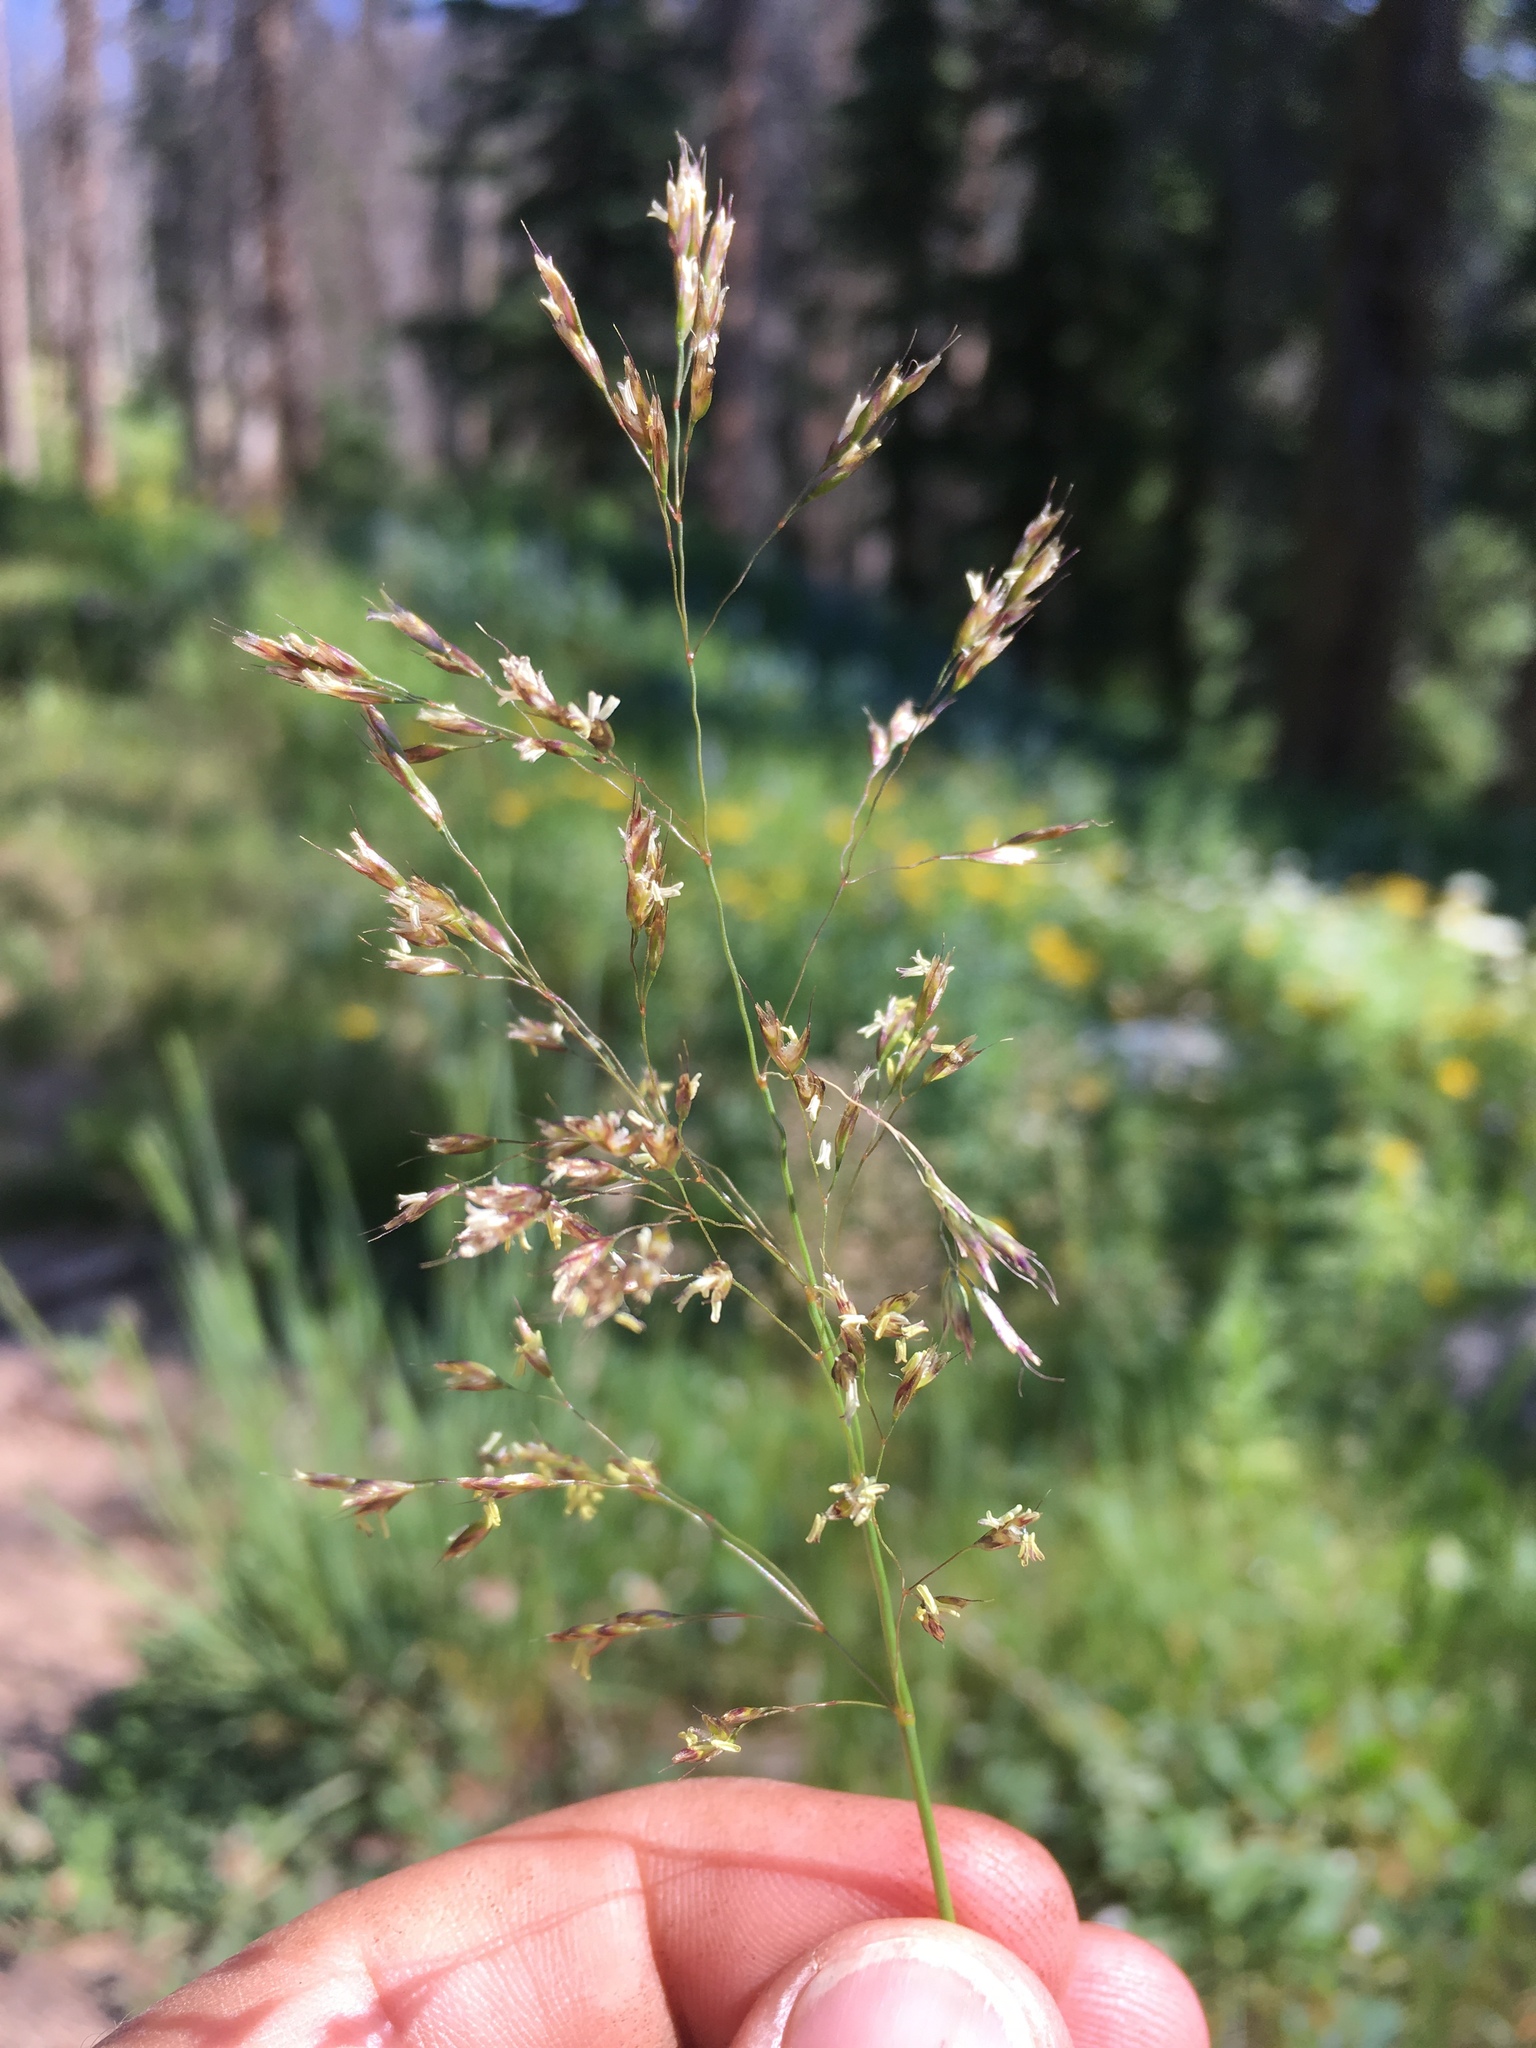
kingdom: Plantae
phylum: Tracheophyta
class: Liliopsida
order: Poales
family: Poaceae
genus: Deschampsia
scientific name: Deschampsia cespitosa
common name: Tufted hair-grass
